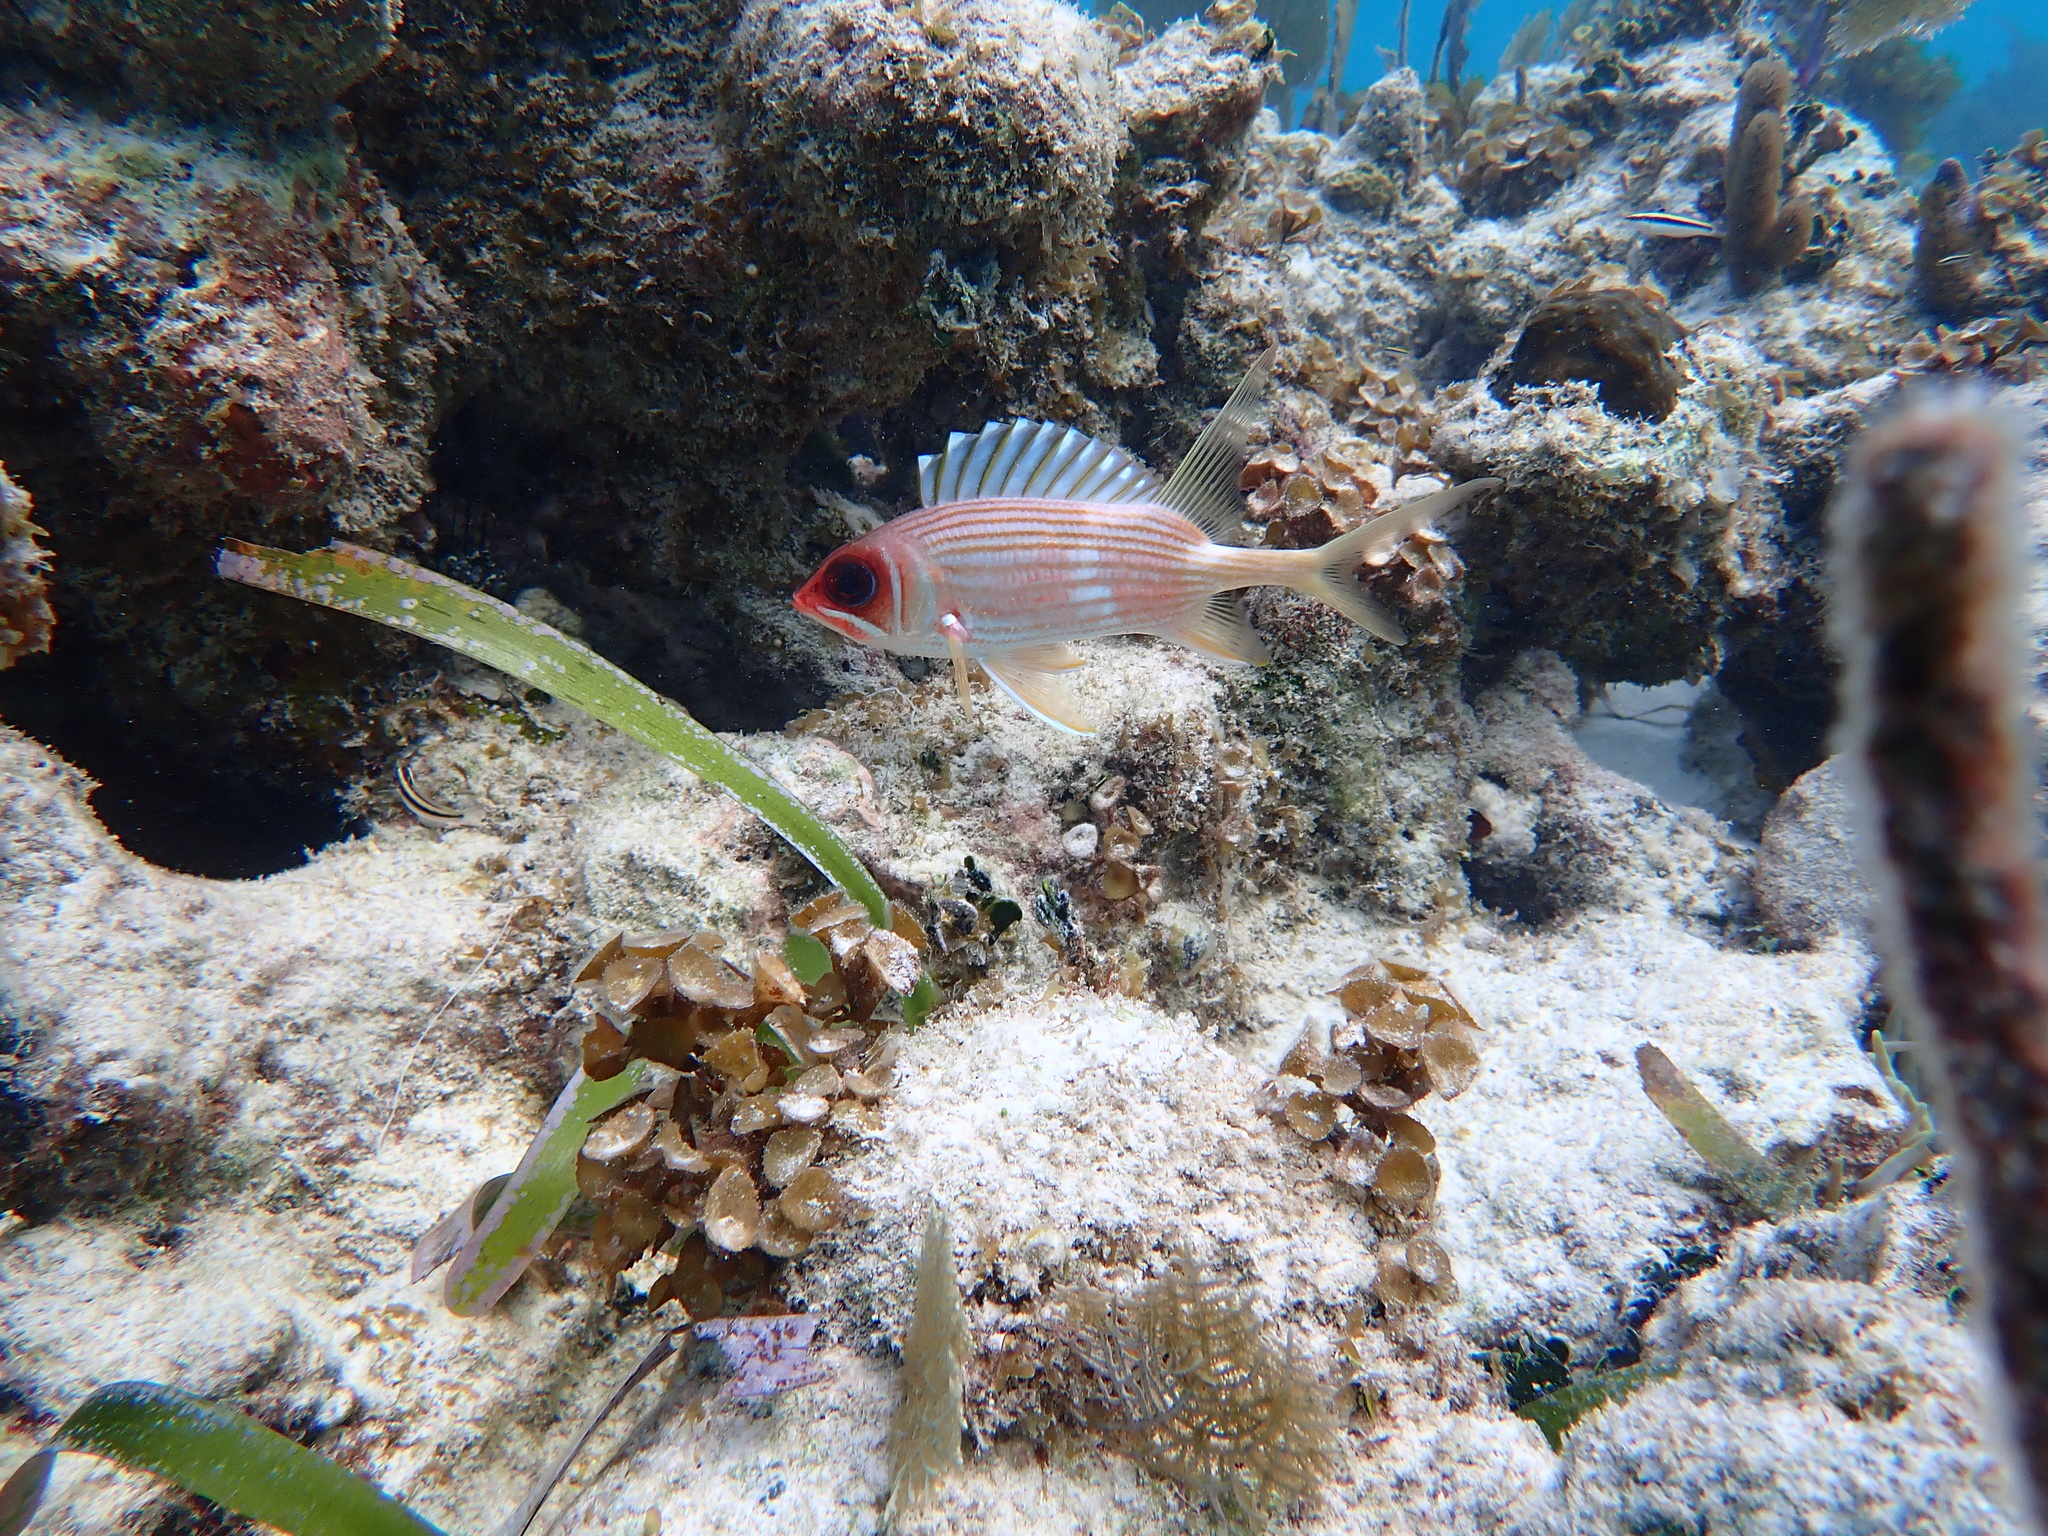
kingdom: Animalia
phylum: Chordata
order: Beryciformes
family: Holocentridae
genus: Holocentrus
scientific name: Holocentrus rufus
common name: Longspine squirrelfish
